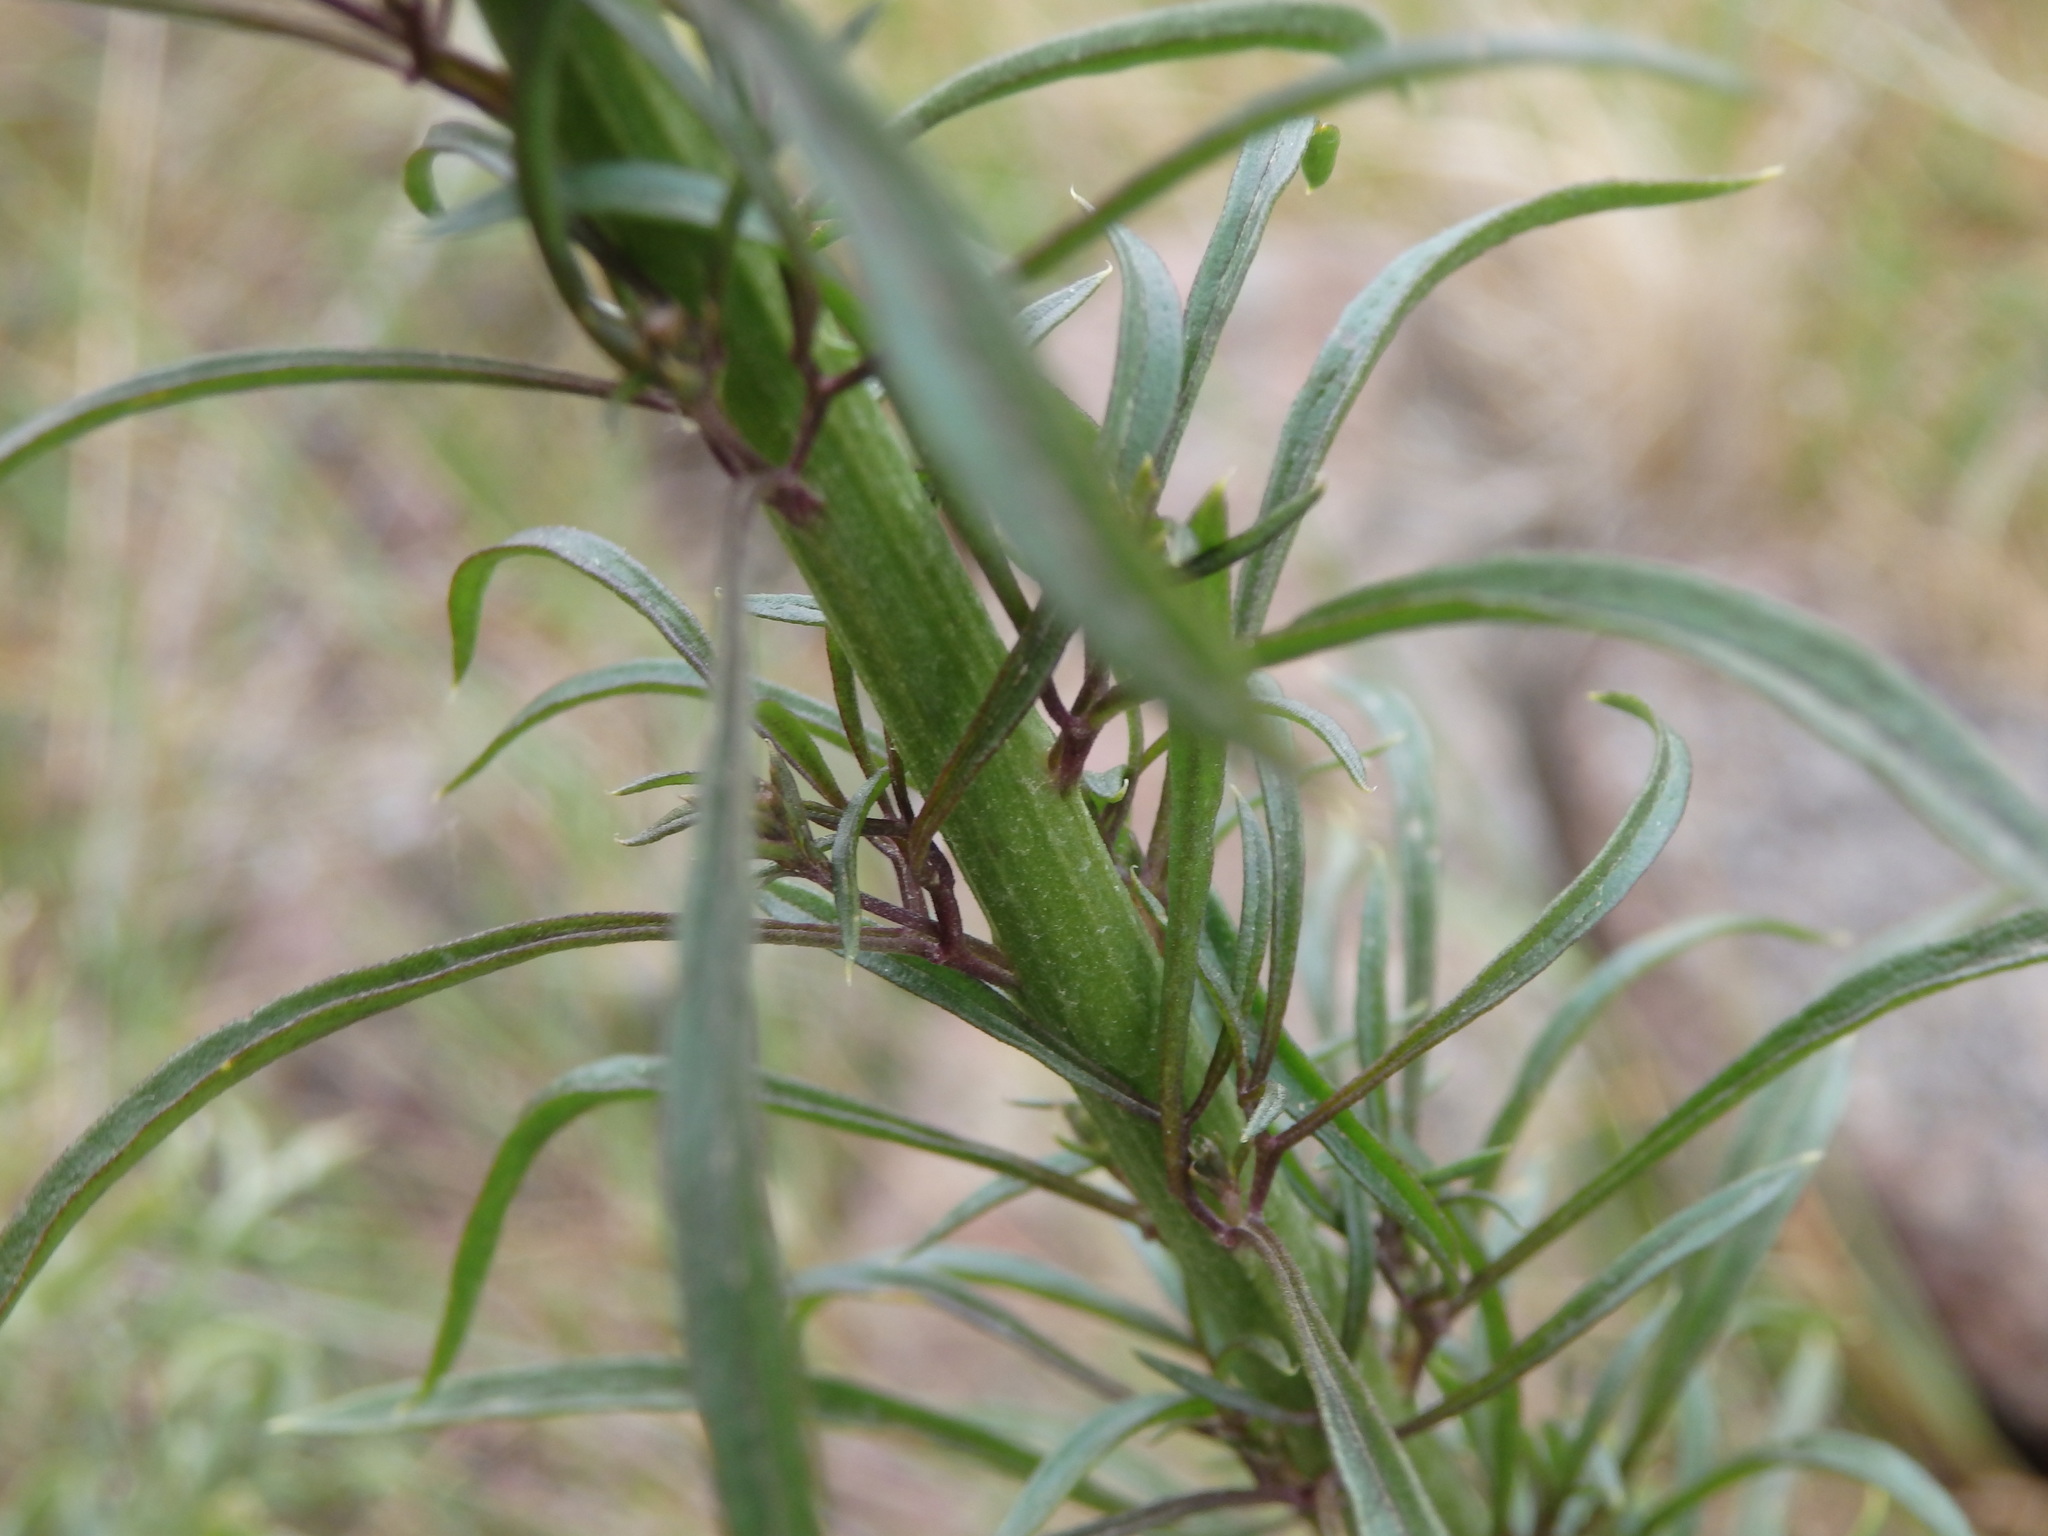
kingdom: Plantae
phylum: Tracheophyta
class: Magnoliopsida
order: Lamiales
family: Plantaginaceae
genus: Anarrhinum
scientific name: Anarrhinum longipedicellatum
